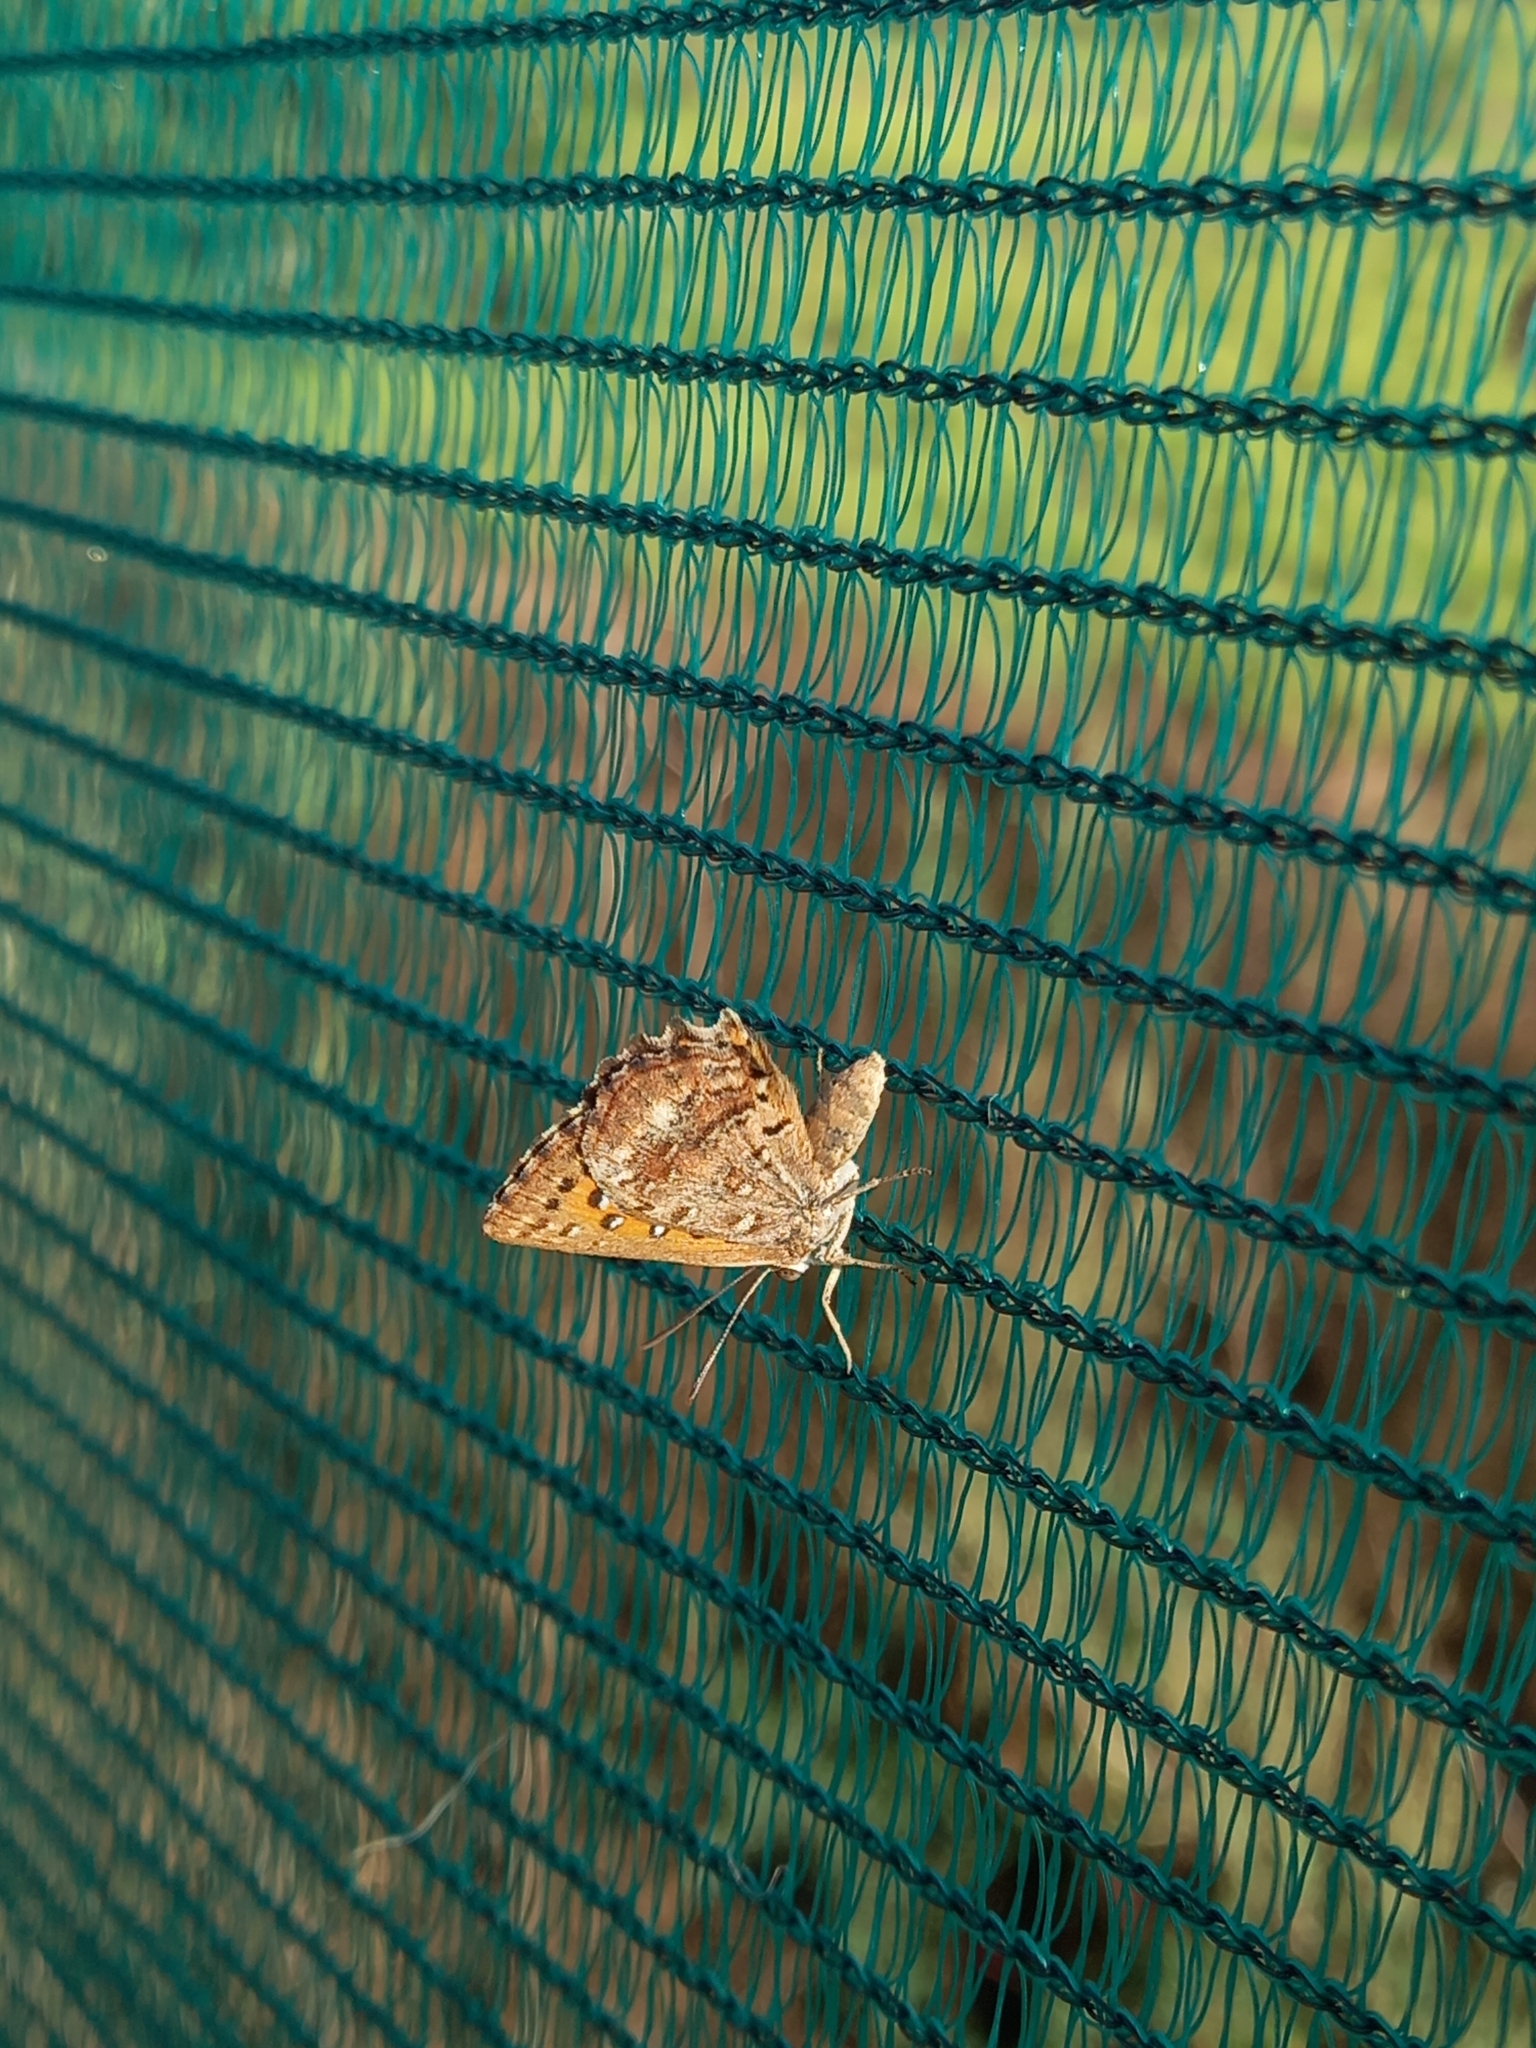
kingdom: Animalia
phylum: Arthropoda
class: Insecta
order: Lepidoptera
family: Lycaenidae
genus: Aloeides
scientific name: Aloeides pierus
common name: Dull copper
